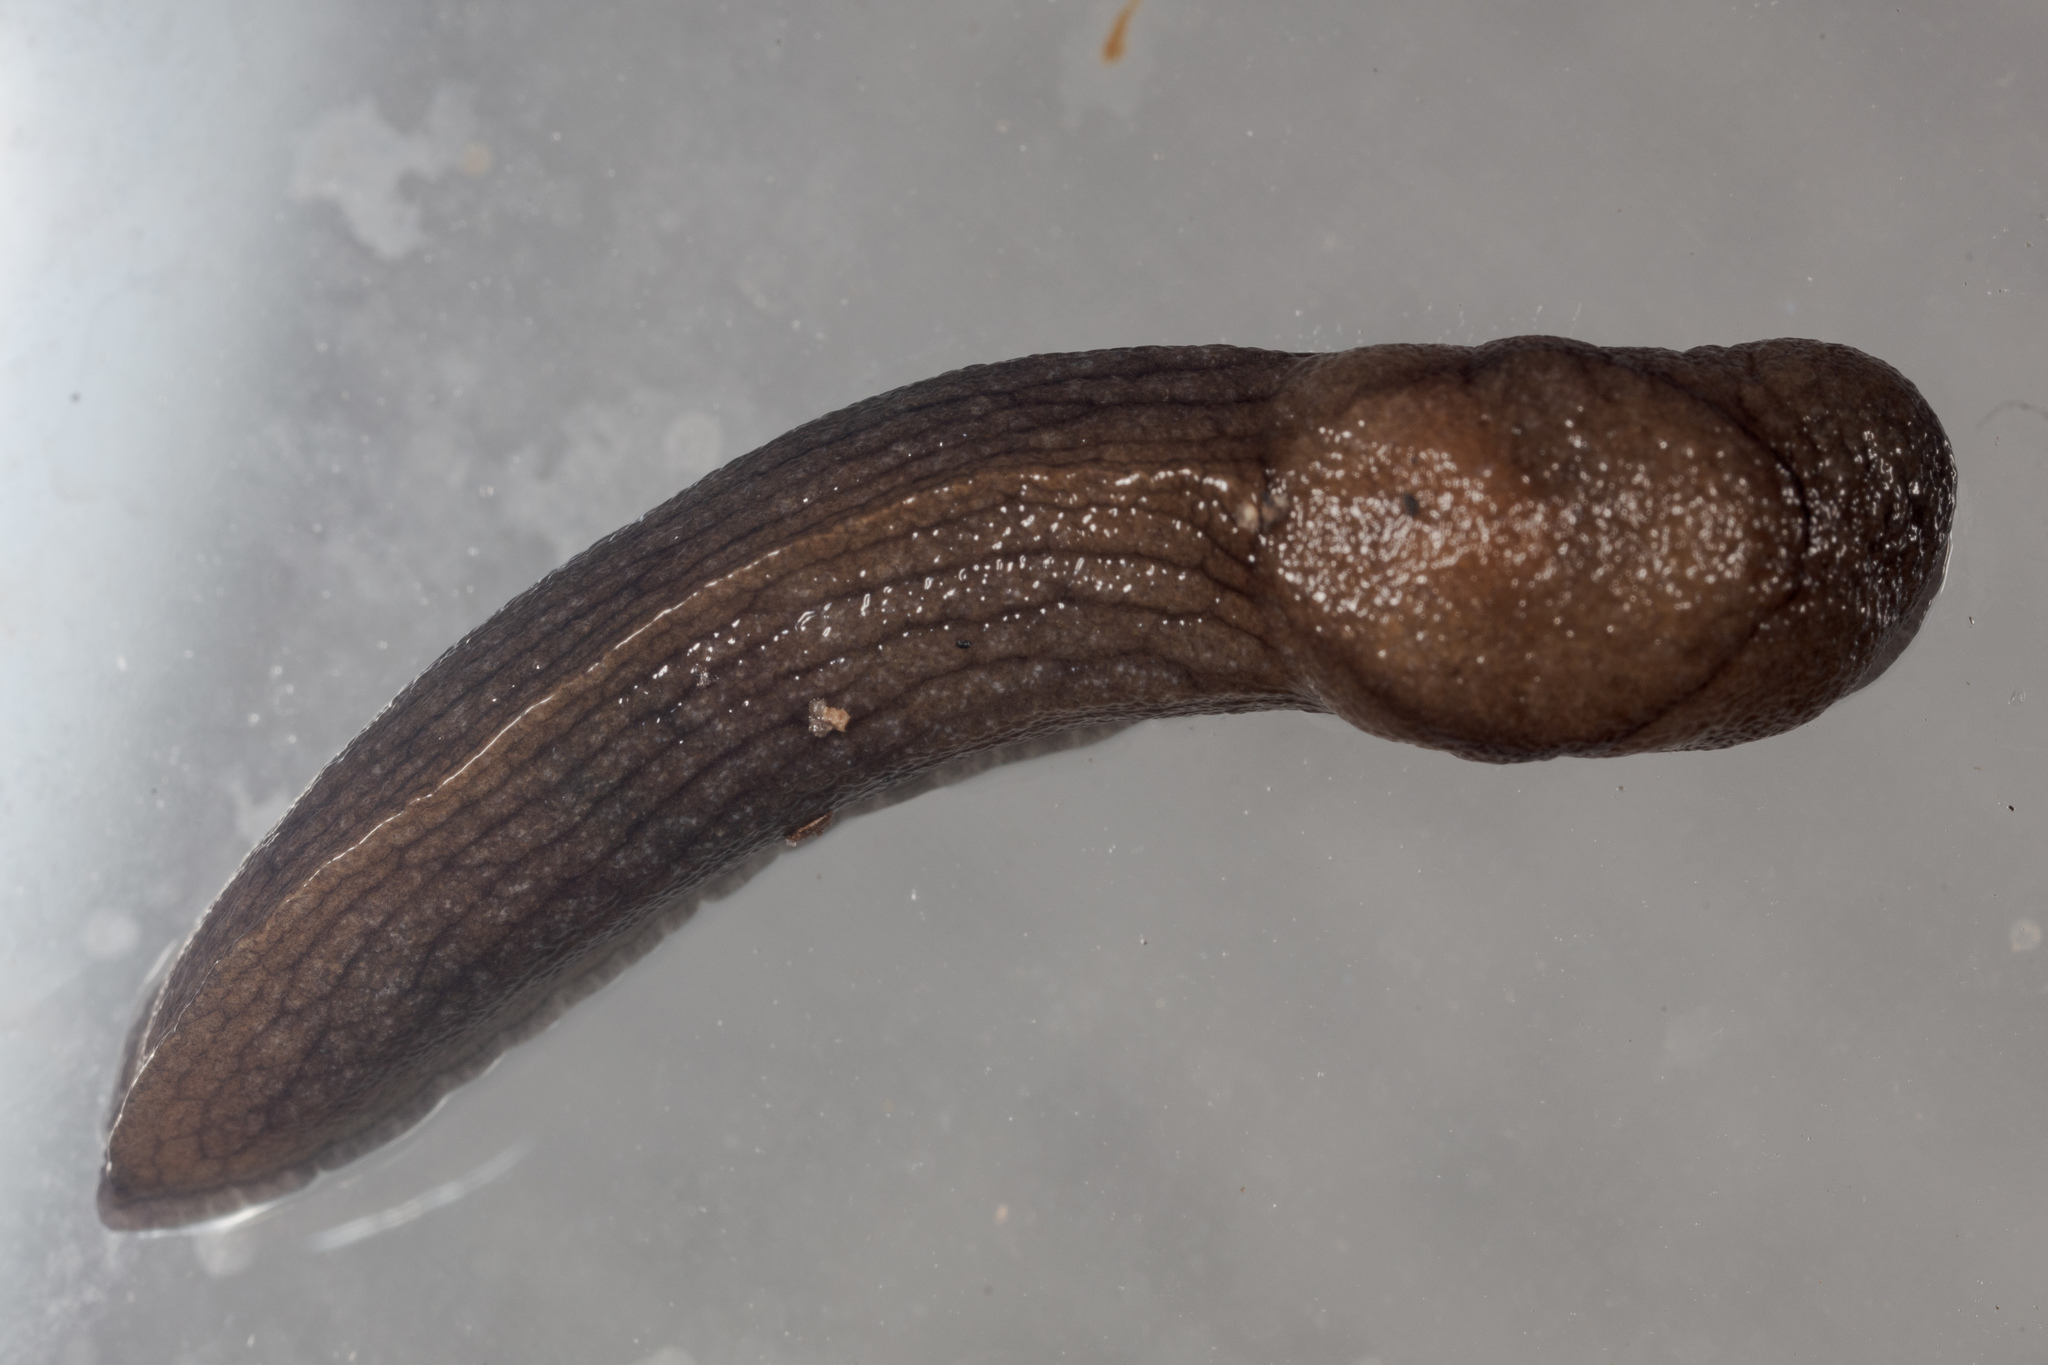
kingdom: Animalia
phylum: Mollusca
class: Gastropoda
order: Stylommatophora
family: Milacidae
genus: Milax
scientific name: Milax gagates
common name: Greenhouse slug
